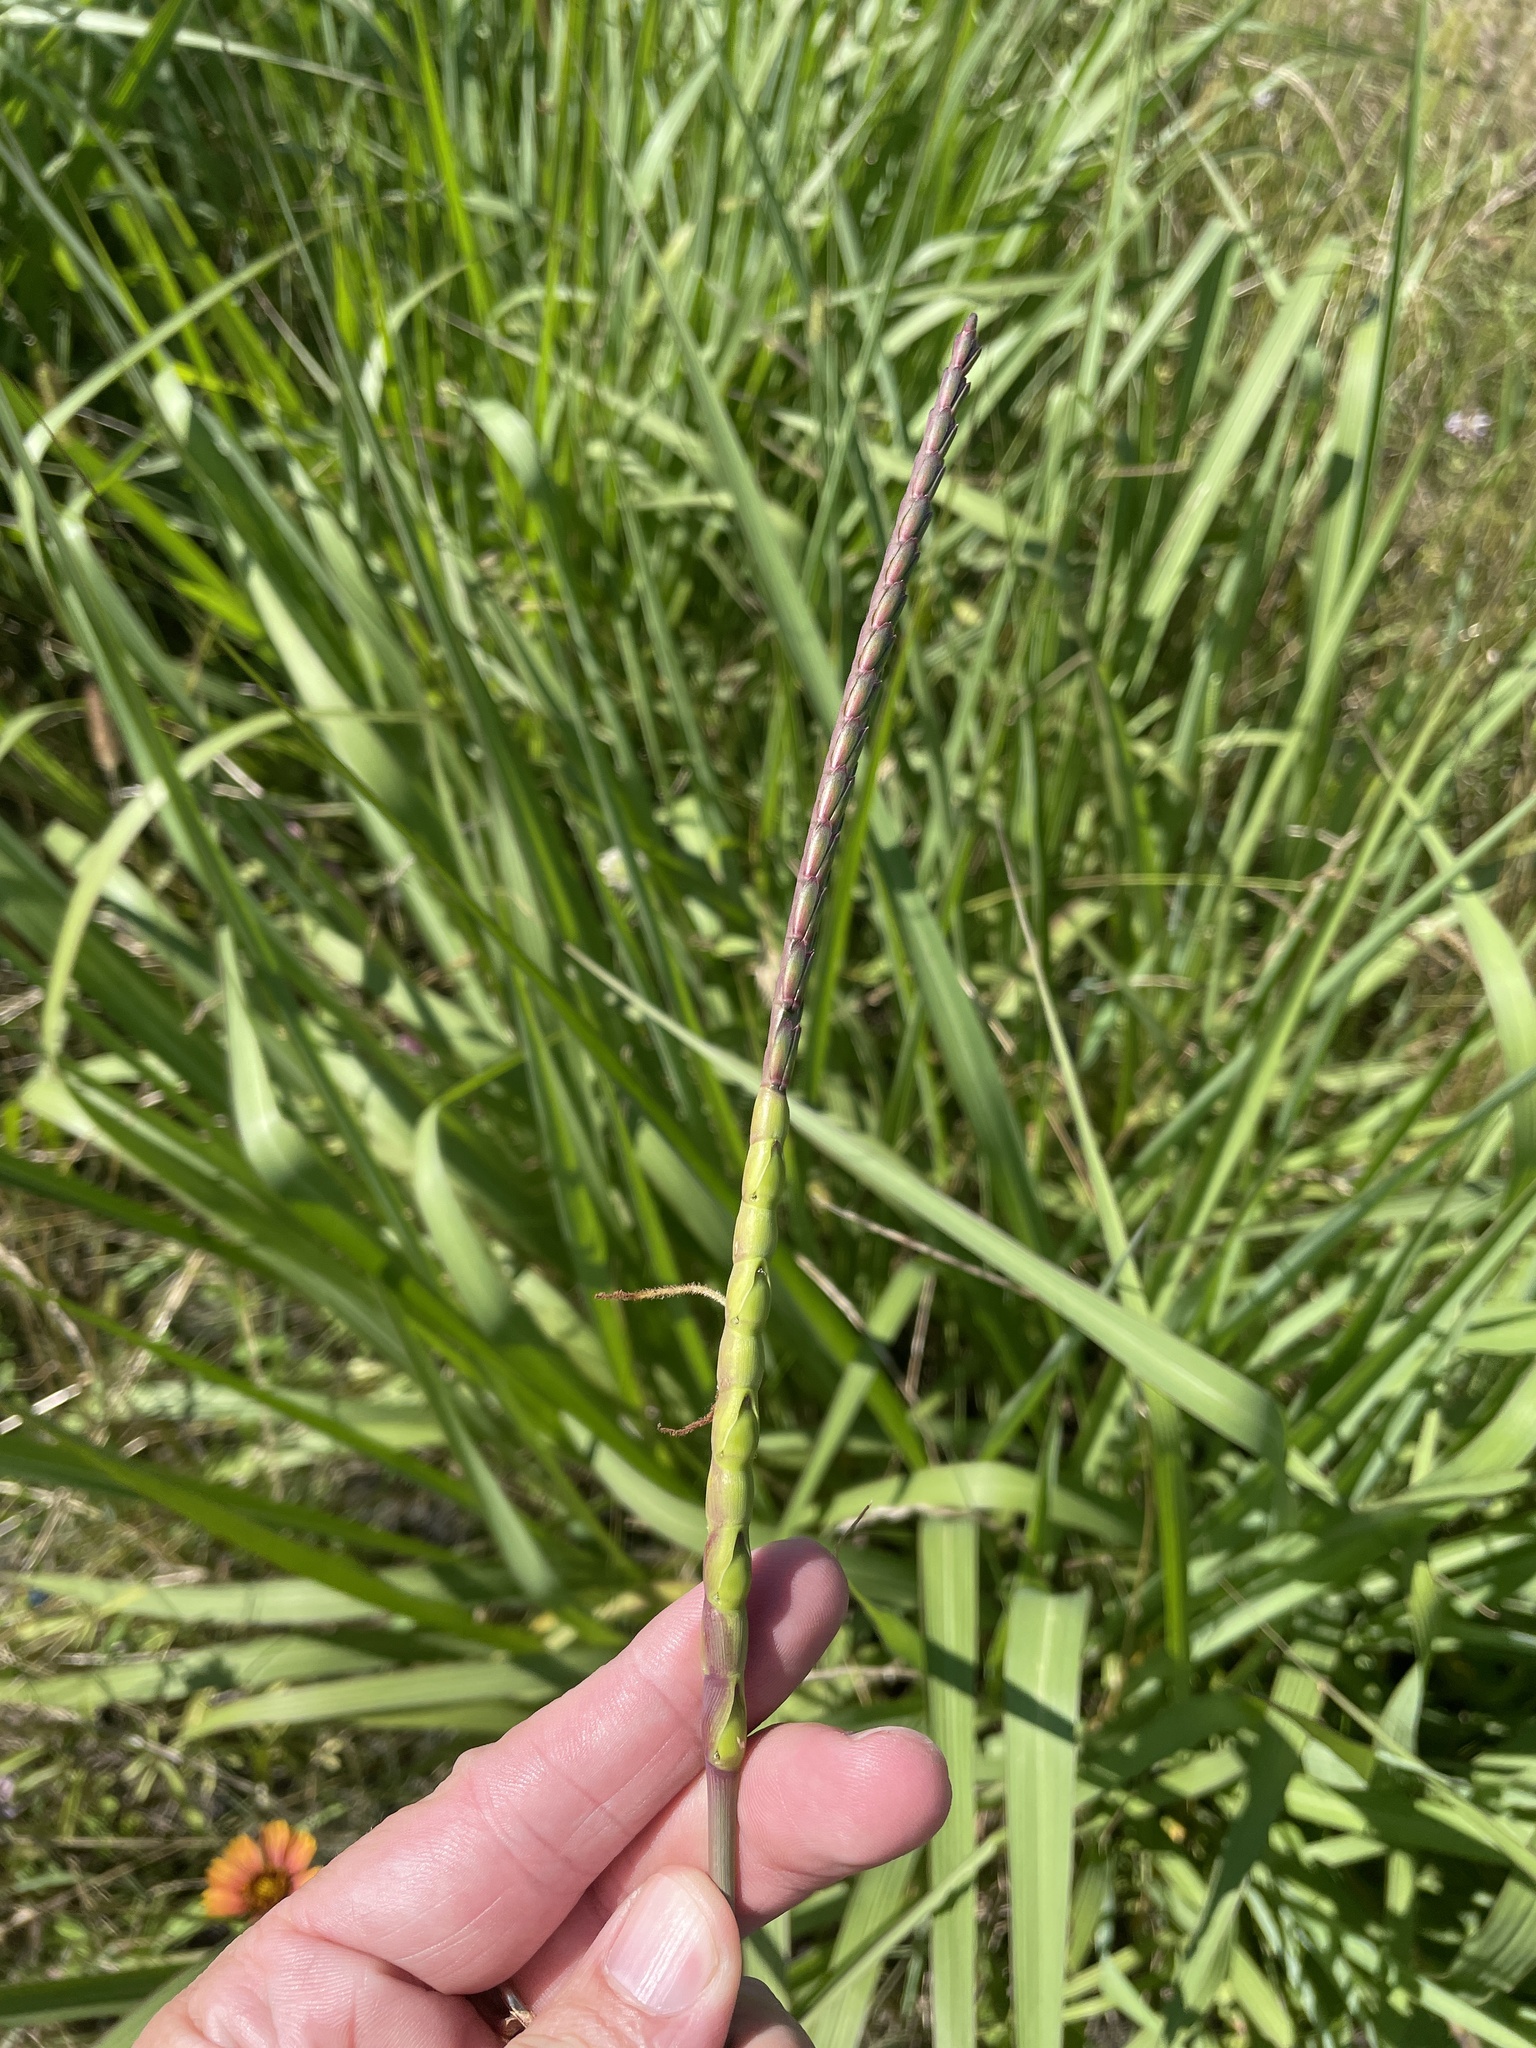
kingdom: Plantae
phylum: Tracheophyta
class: Liliopsida
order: Poales
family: Poaceae
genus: Tripsacum
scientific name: Tripsacum dactyloides
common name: Buffalo-grass
